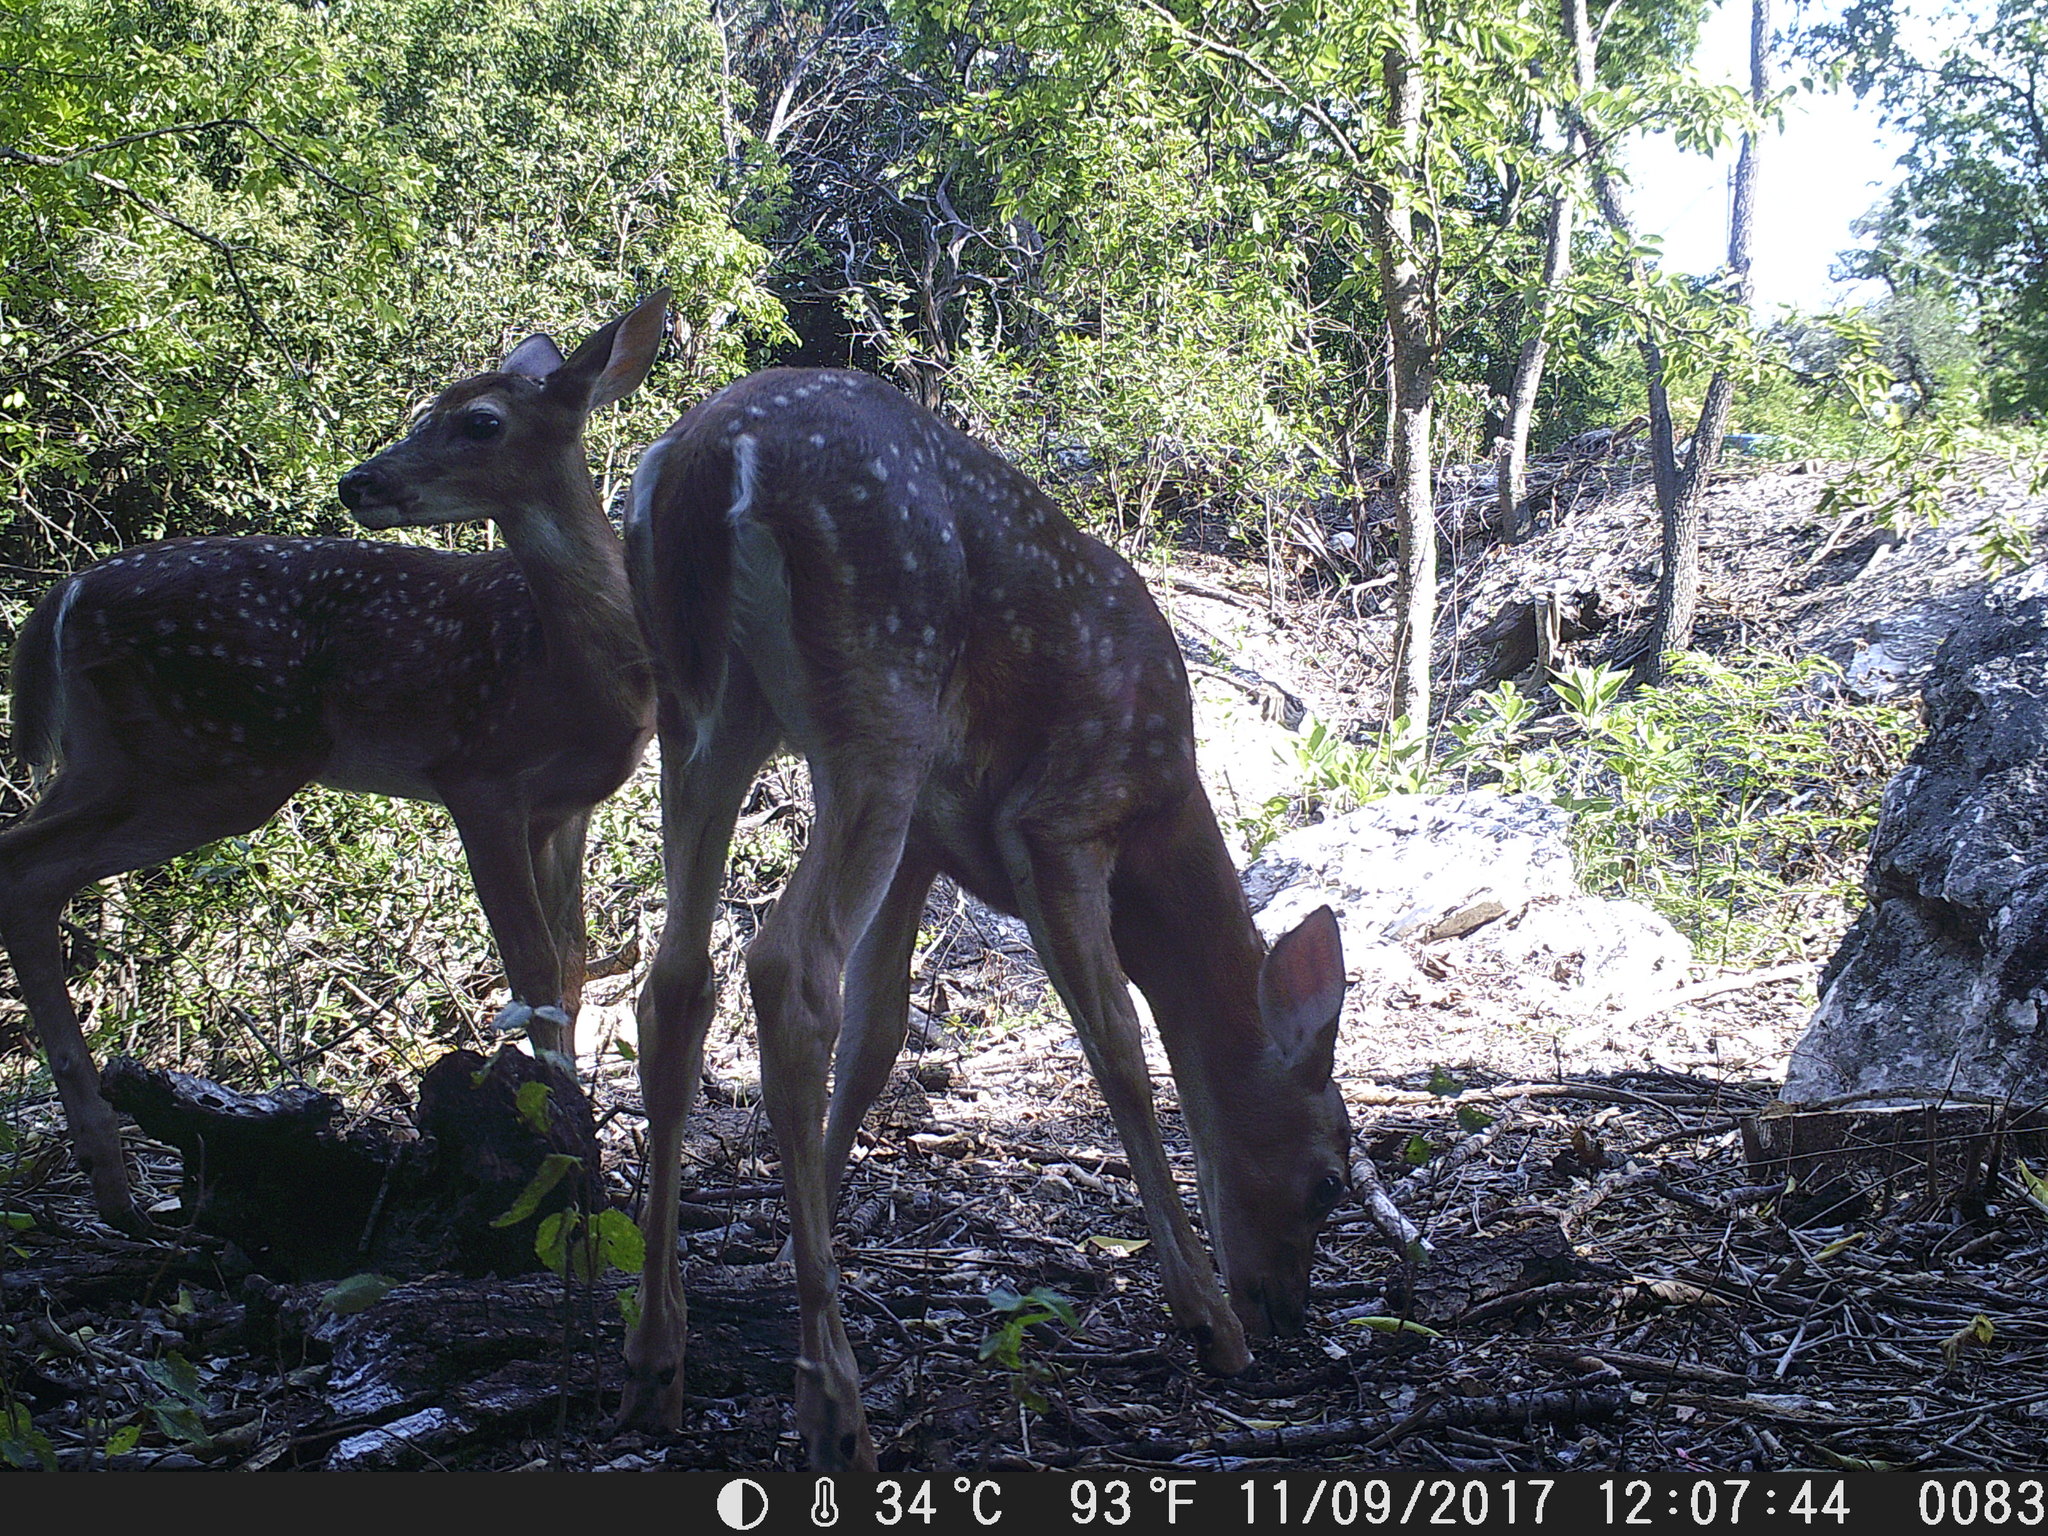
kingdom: Animalia
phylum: Chordata
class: Mammalia
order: Artiodactyla
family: Cervidae
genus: Odocoileus
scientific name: Odocoileus virginianus
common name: White-tailed deer
